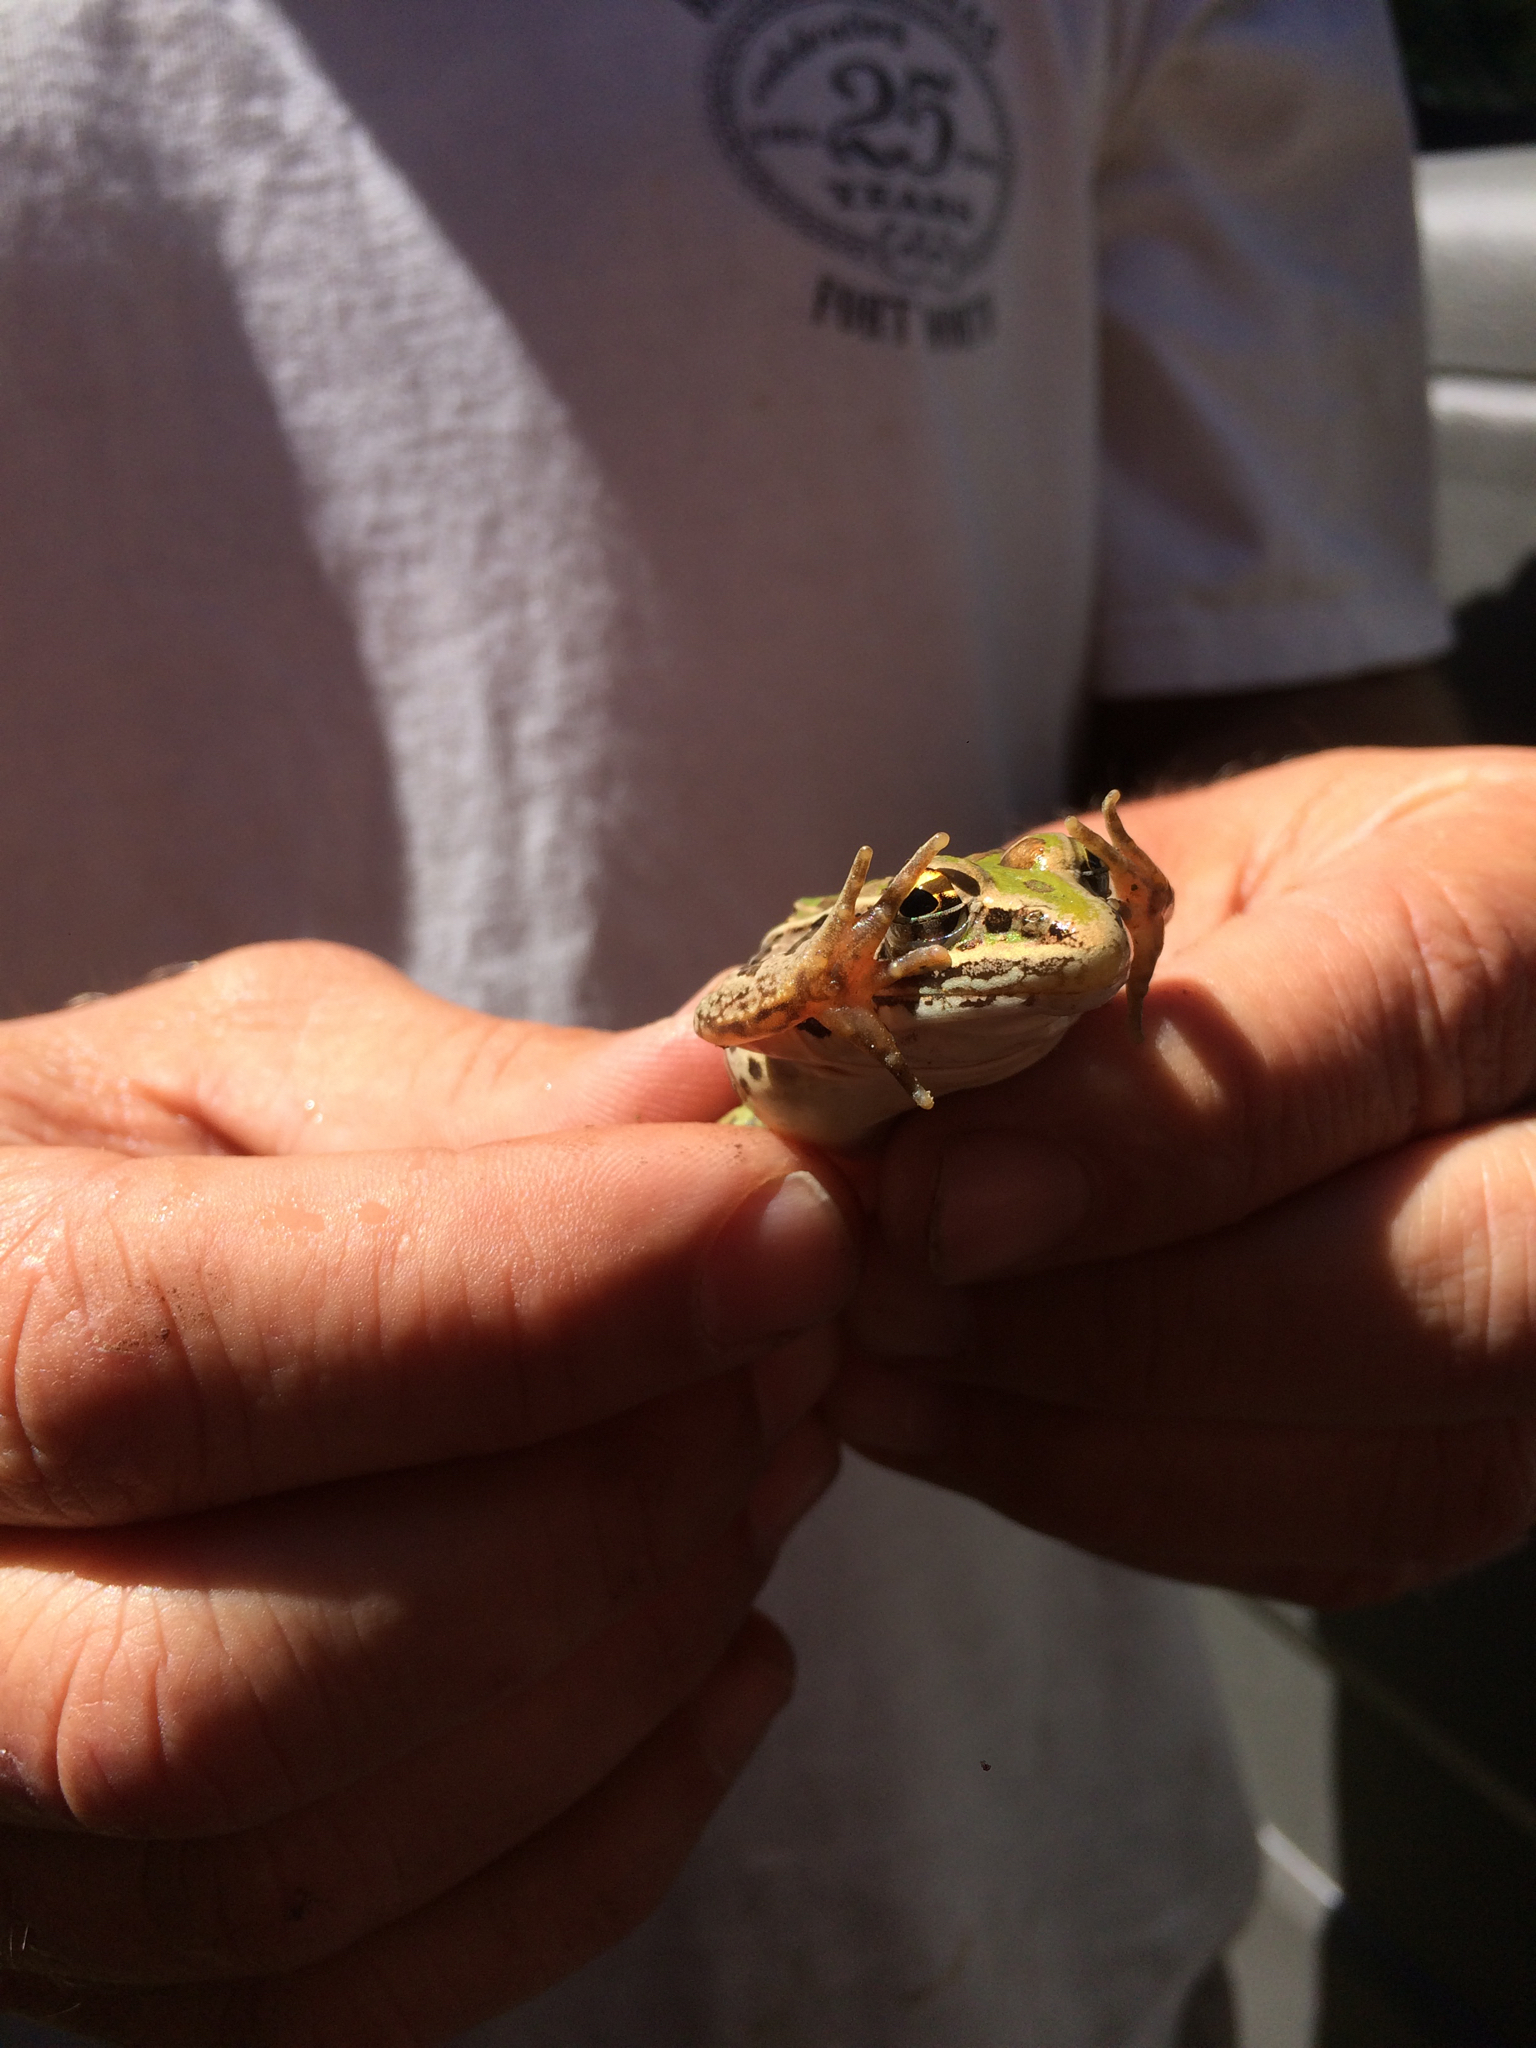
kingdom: Animalia
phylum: Chordata
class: Amphibia
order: Anura
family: Ranidae
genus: Lithobates
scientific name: Lithobates sphenocephalus
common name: Southern leopard frog
